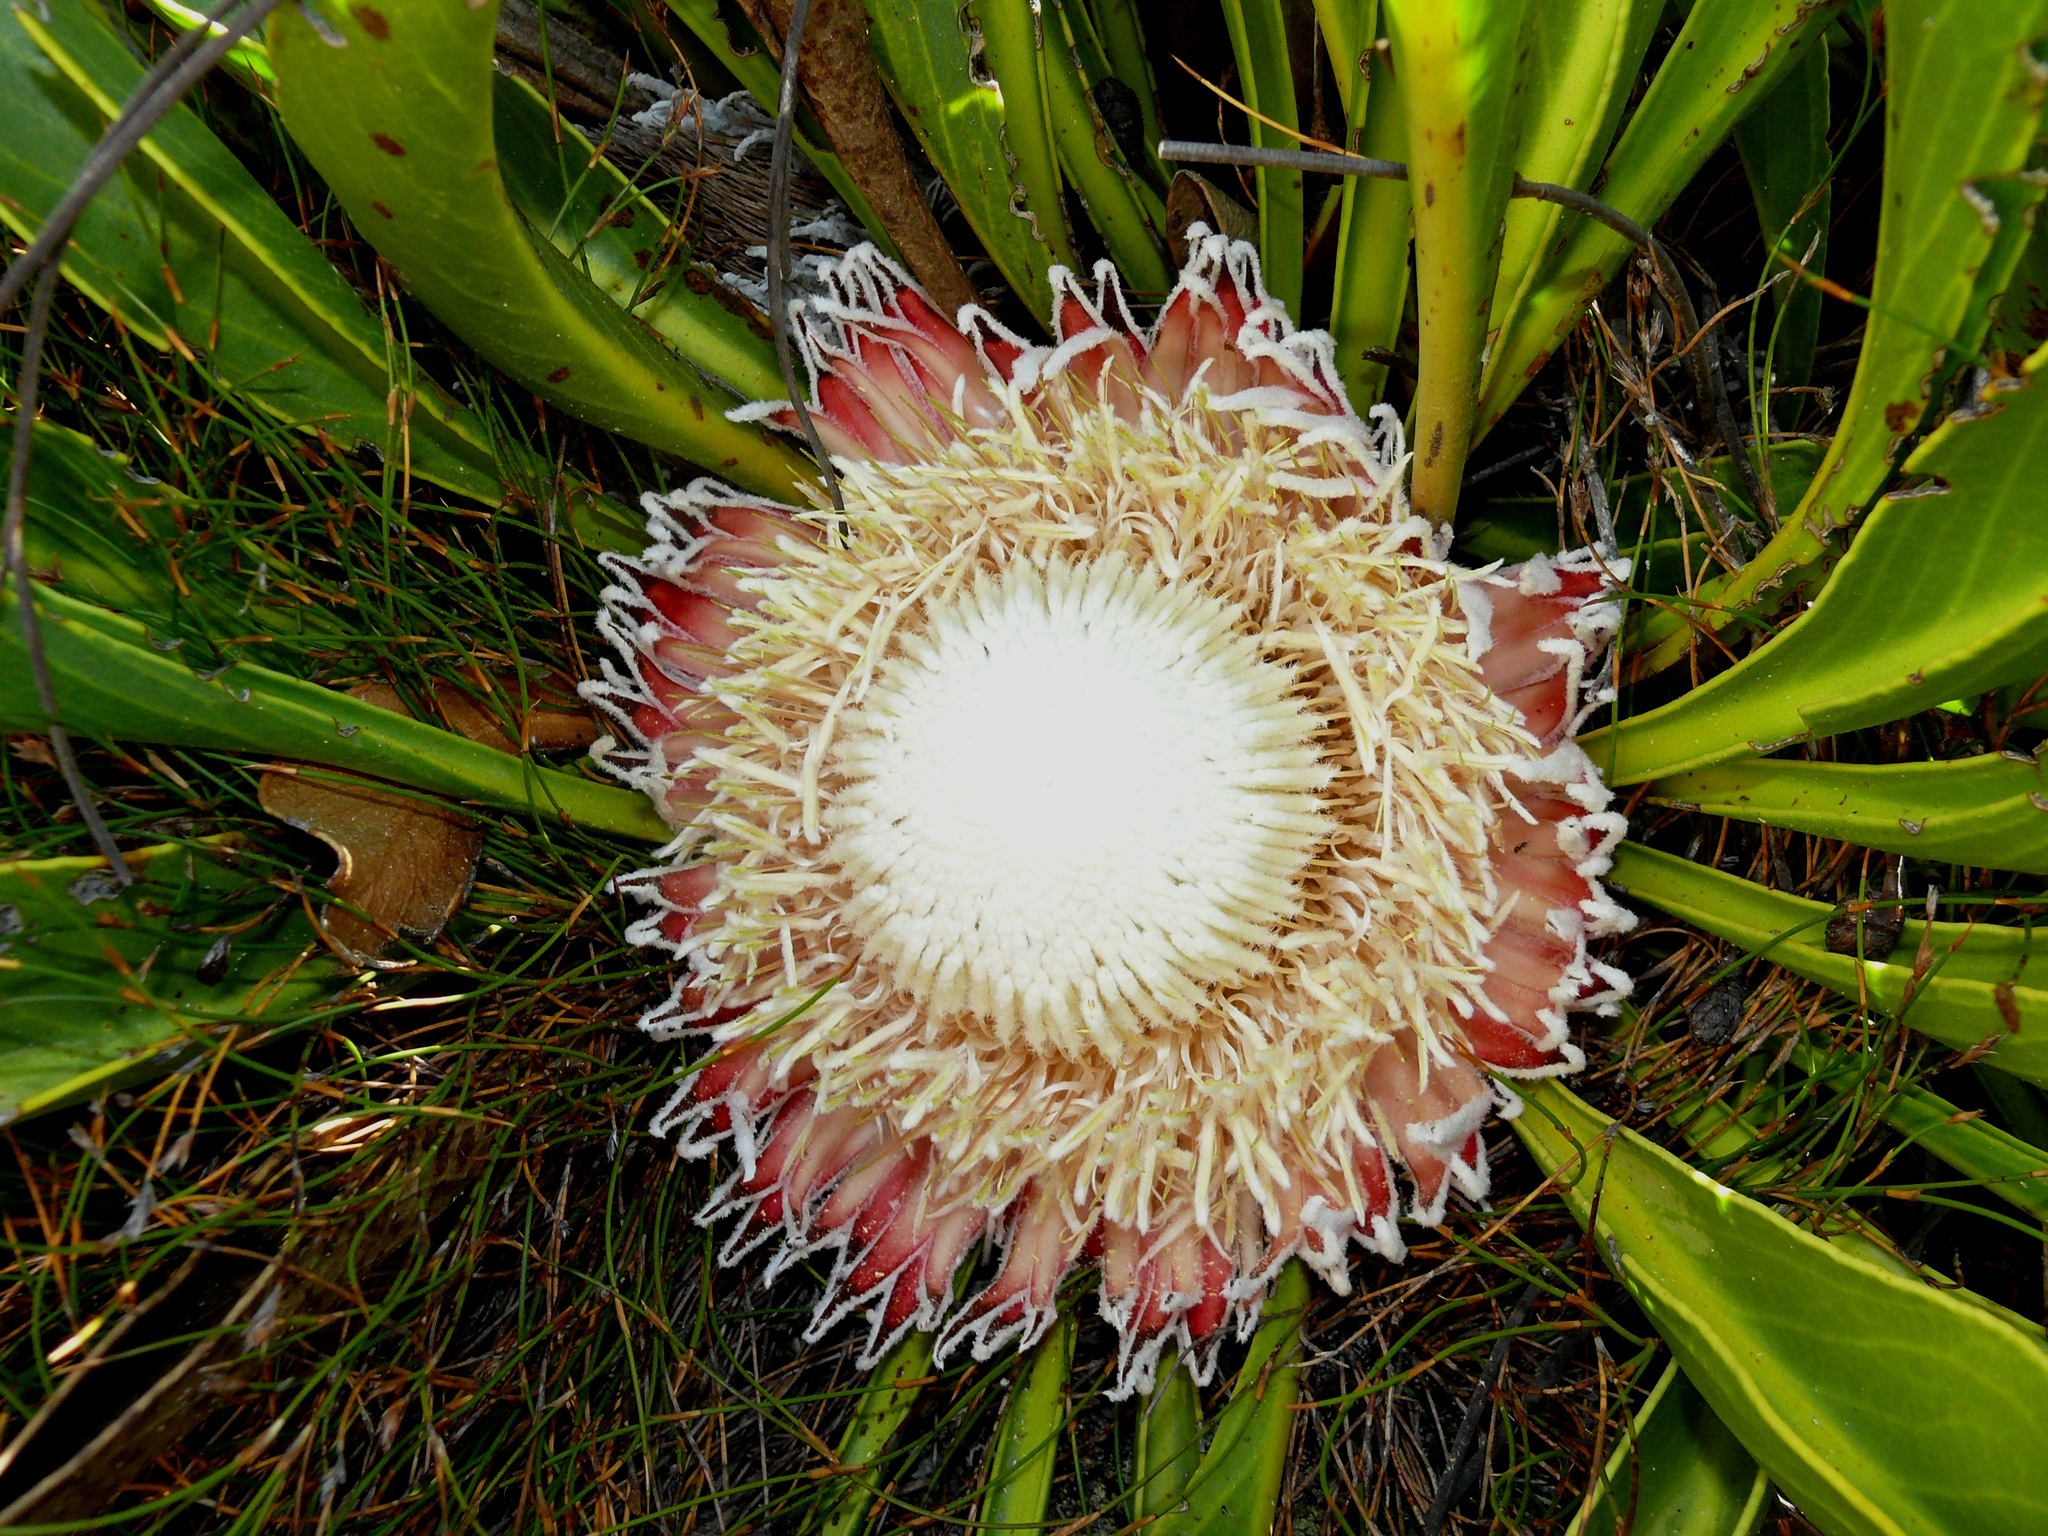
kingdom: Plantae
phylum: Tracheophyta
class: Magnoliopsida
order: Proteales
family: Proteaceae
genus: Protea
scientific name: Protea cryophila
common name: Snow protea
